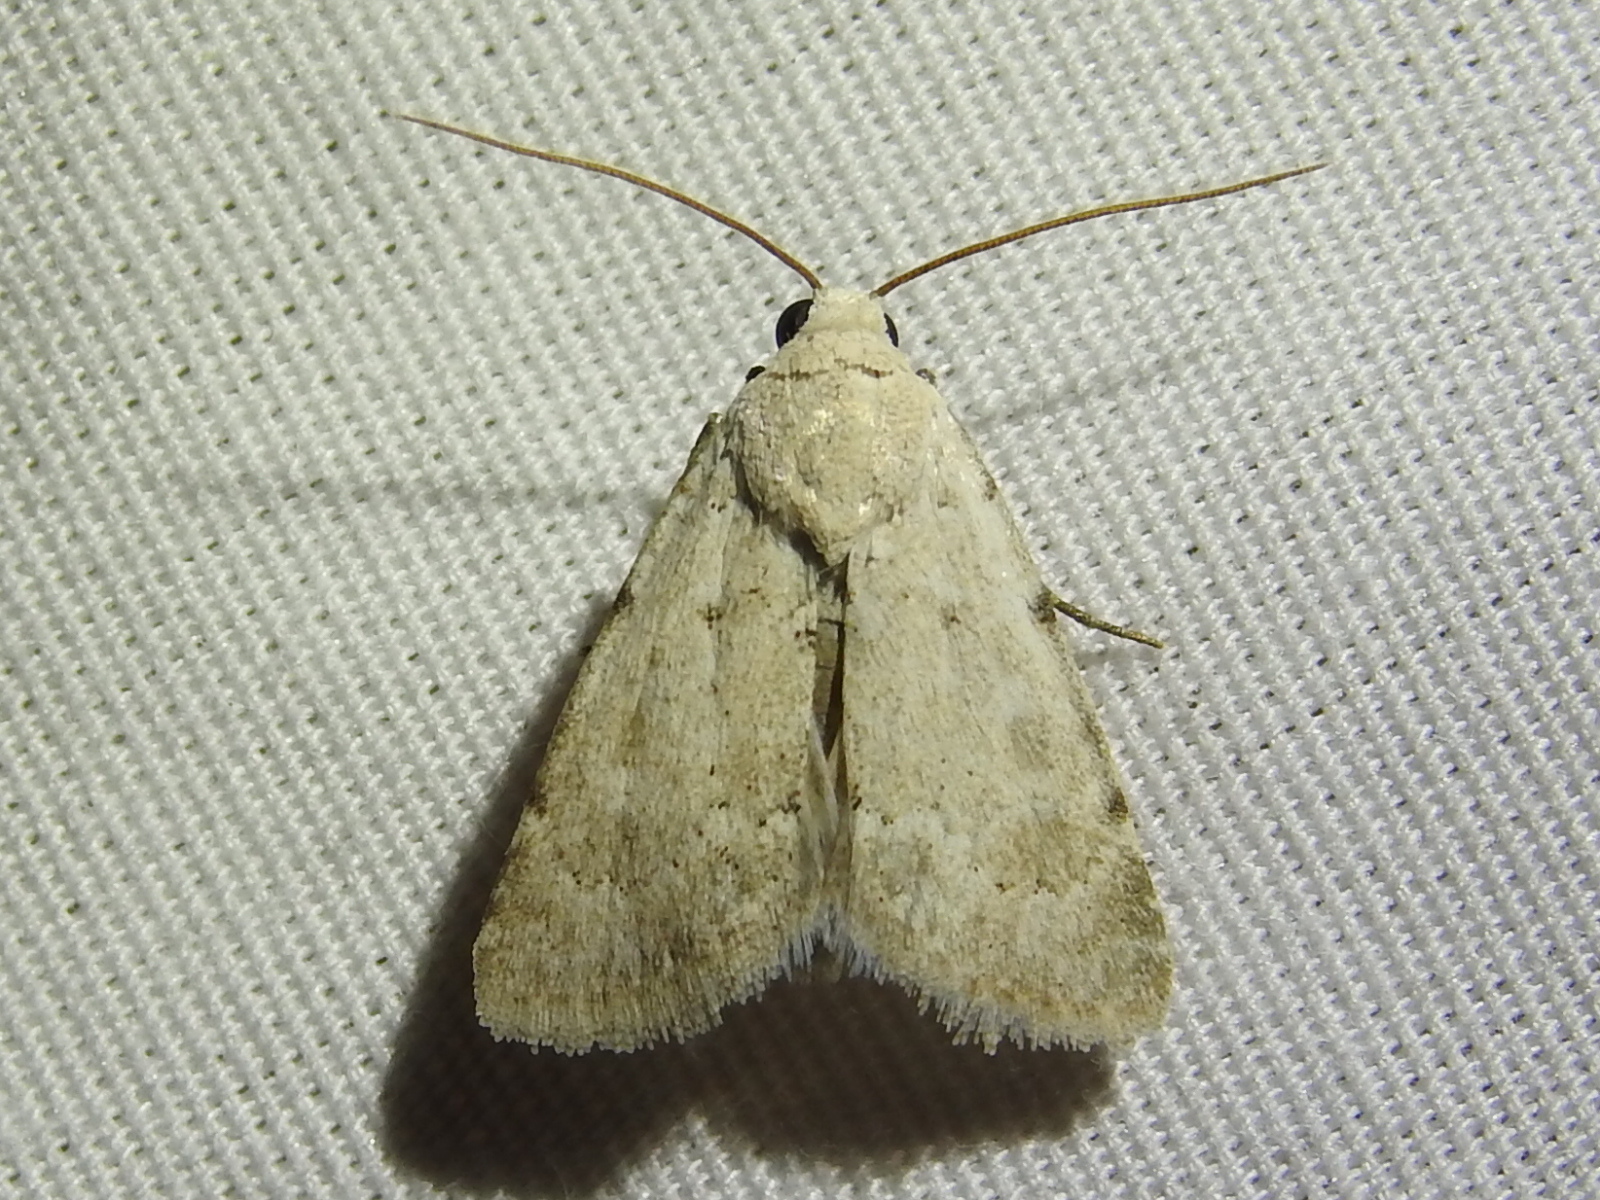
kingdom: Animalia
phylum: Arthropoda
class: Insecta
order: Lepidoptera
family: Noctuidae
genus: Leucocnemis
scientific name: Leucocnemis perfundis
